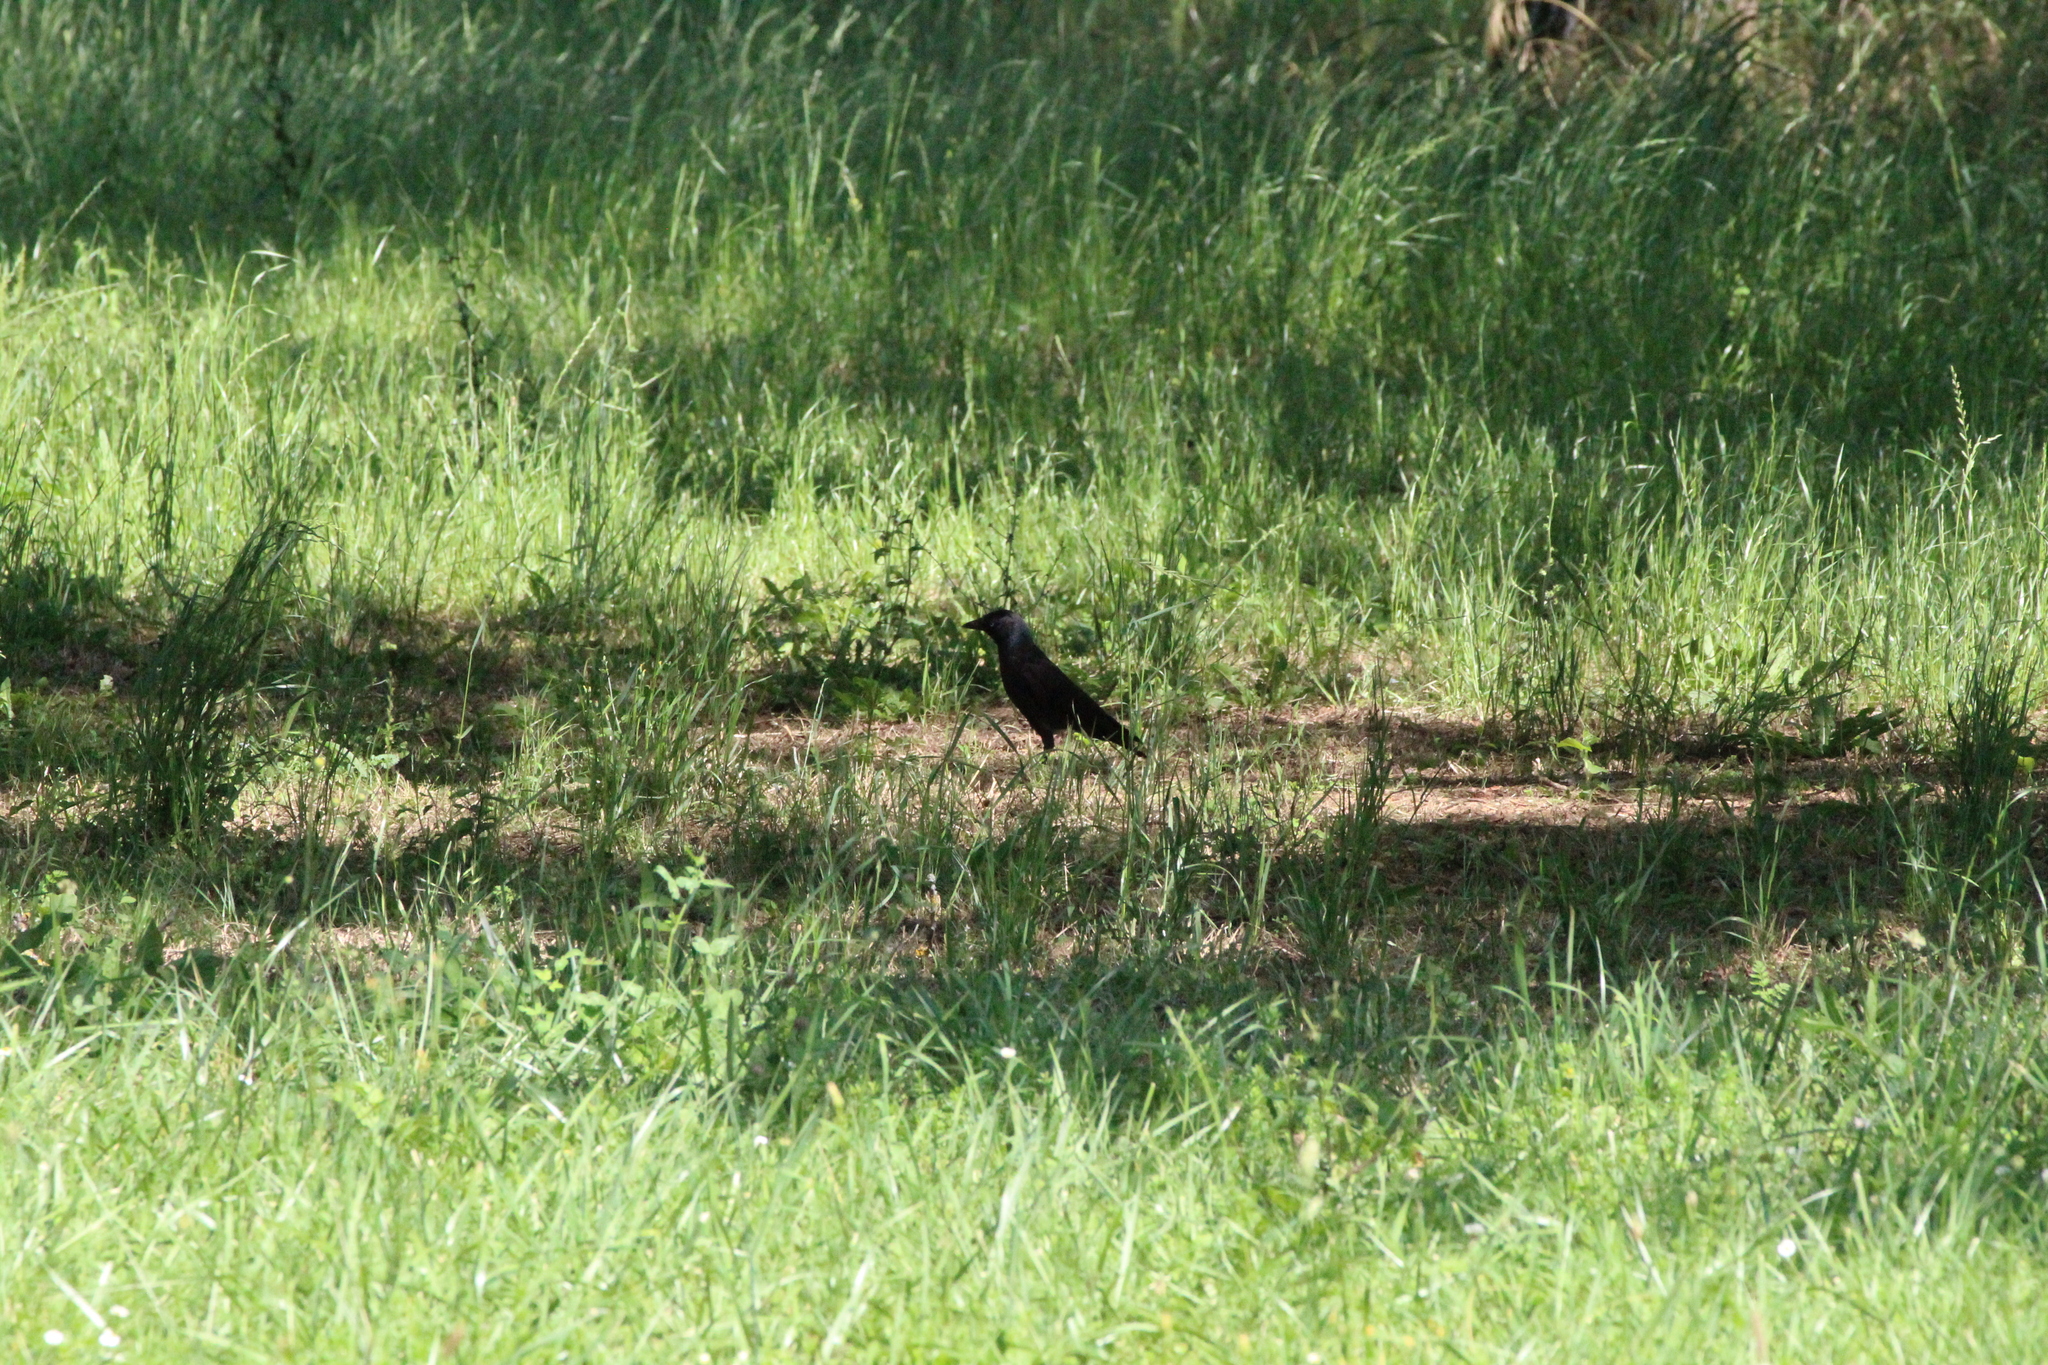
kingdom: Animalia
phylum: Chordata
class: Aves
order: Passeriformes
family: Corvidae
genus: Coloeus
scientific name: Coloeus monedula
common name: Western jackdaw
